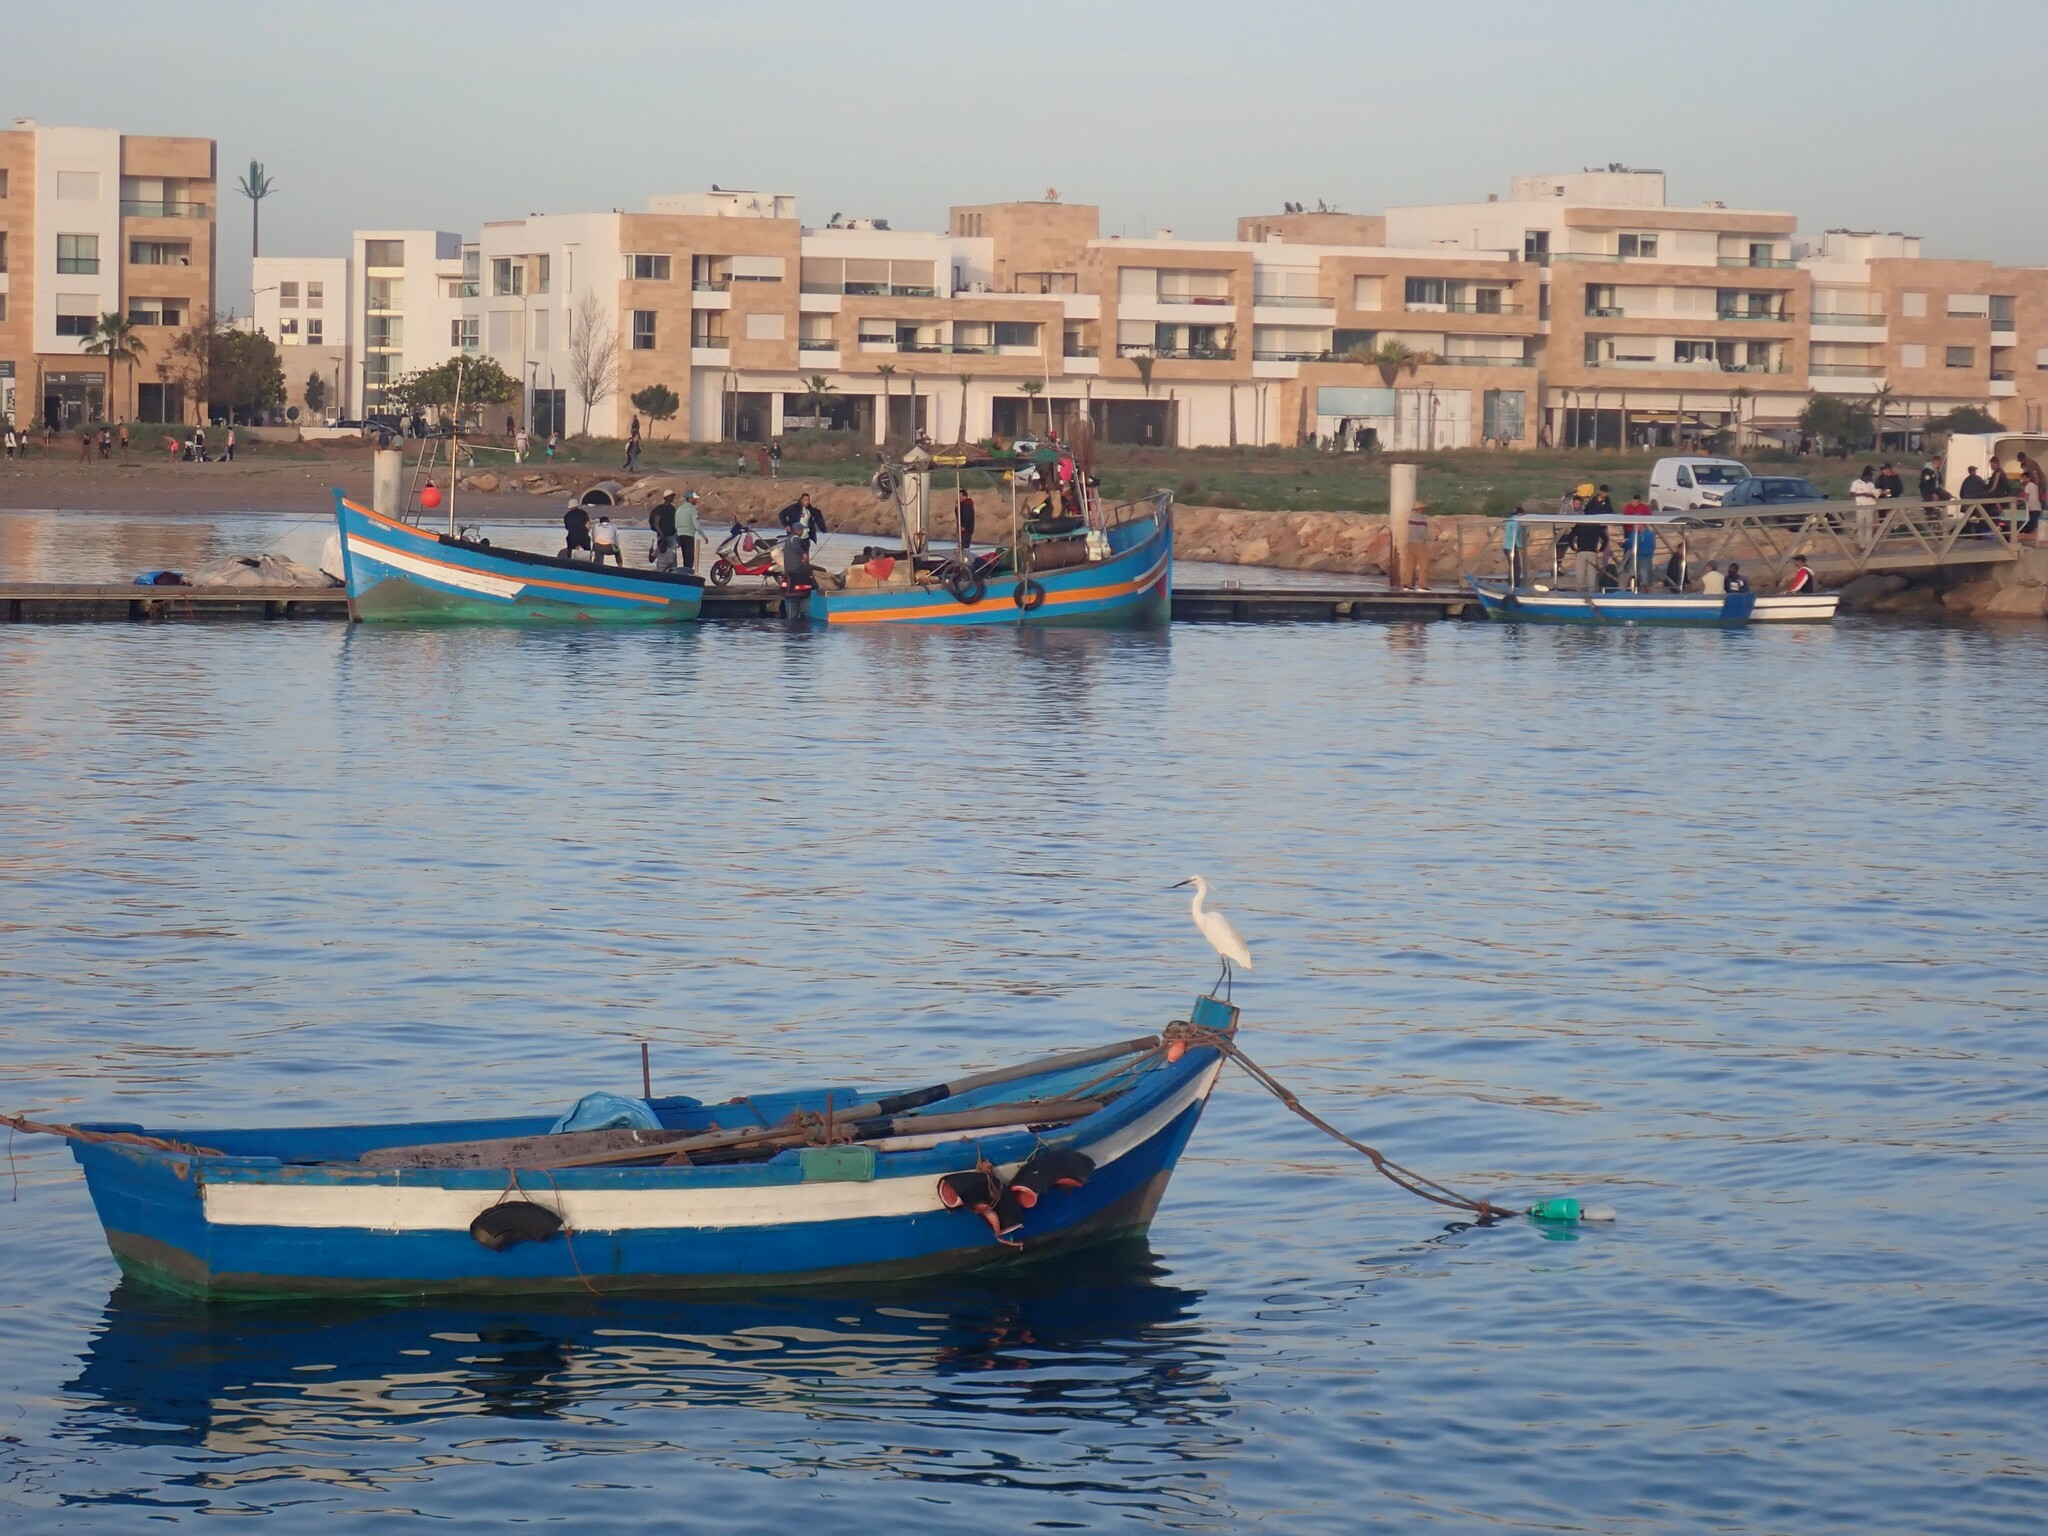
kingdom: Animalia
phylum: Chordata
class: Aves
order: Pelecaniformes
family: Ardeidae
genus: Egretta
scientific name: Egretta garzetta
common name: Little egret
